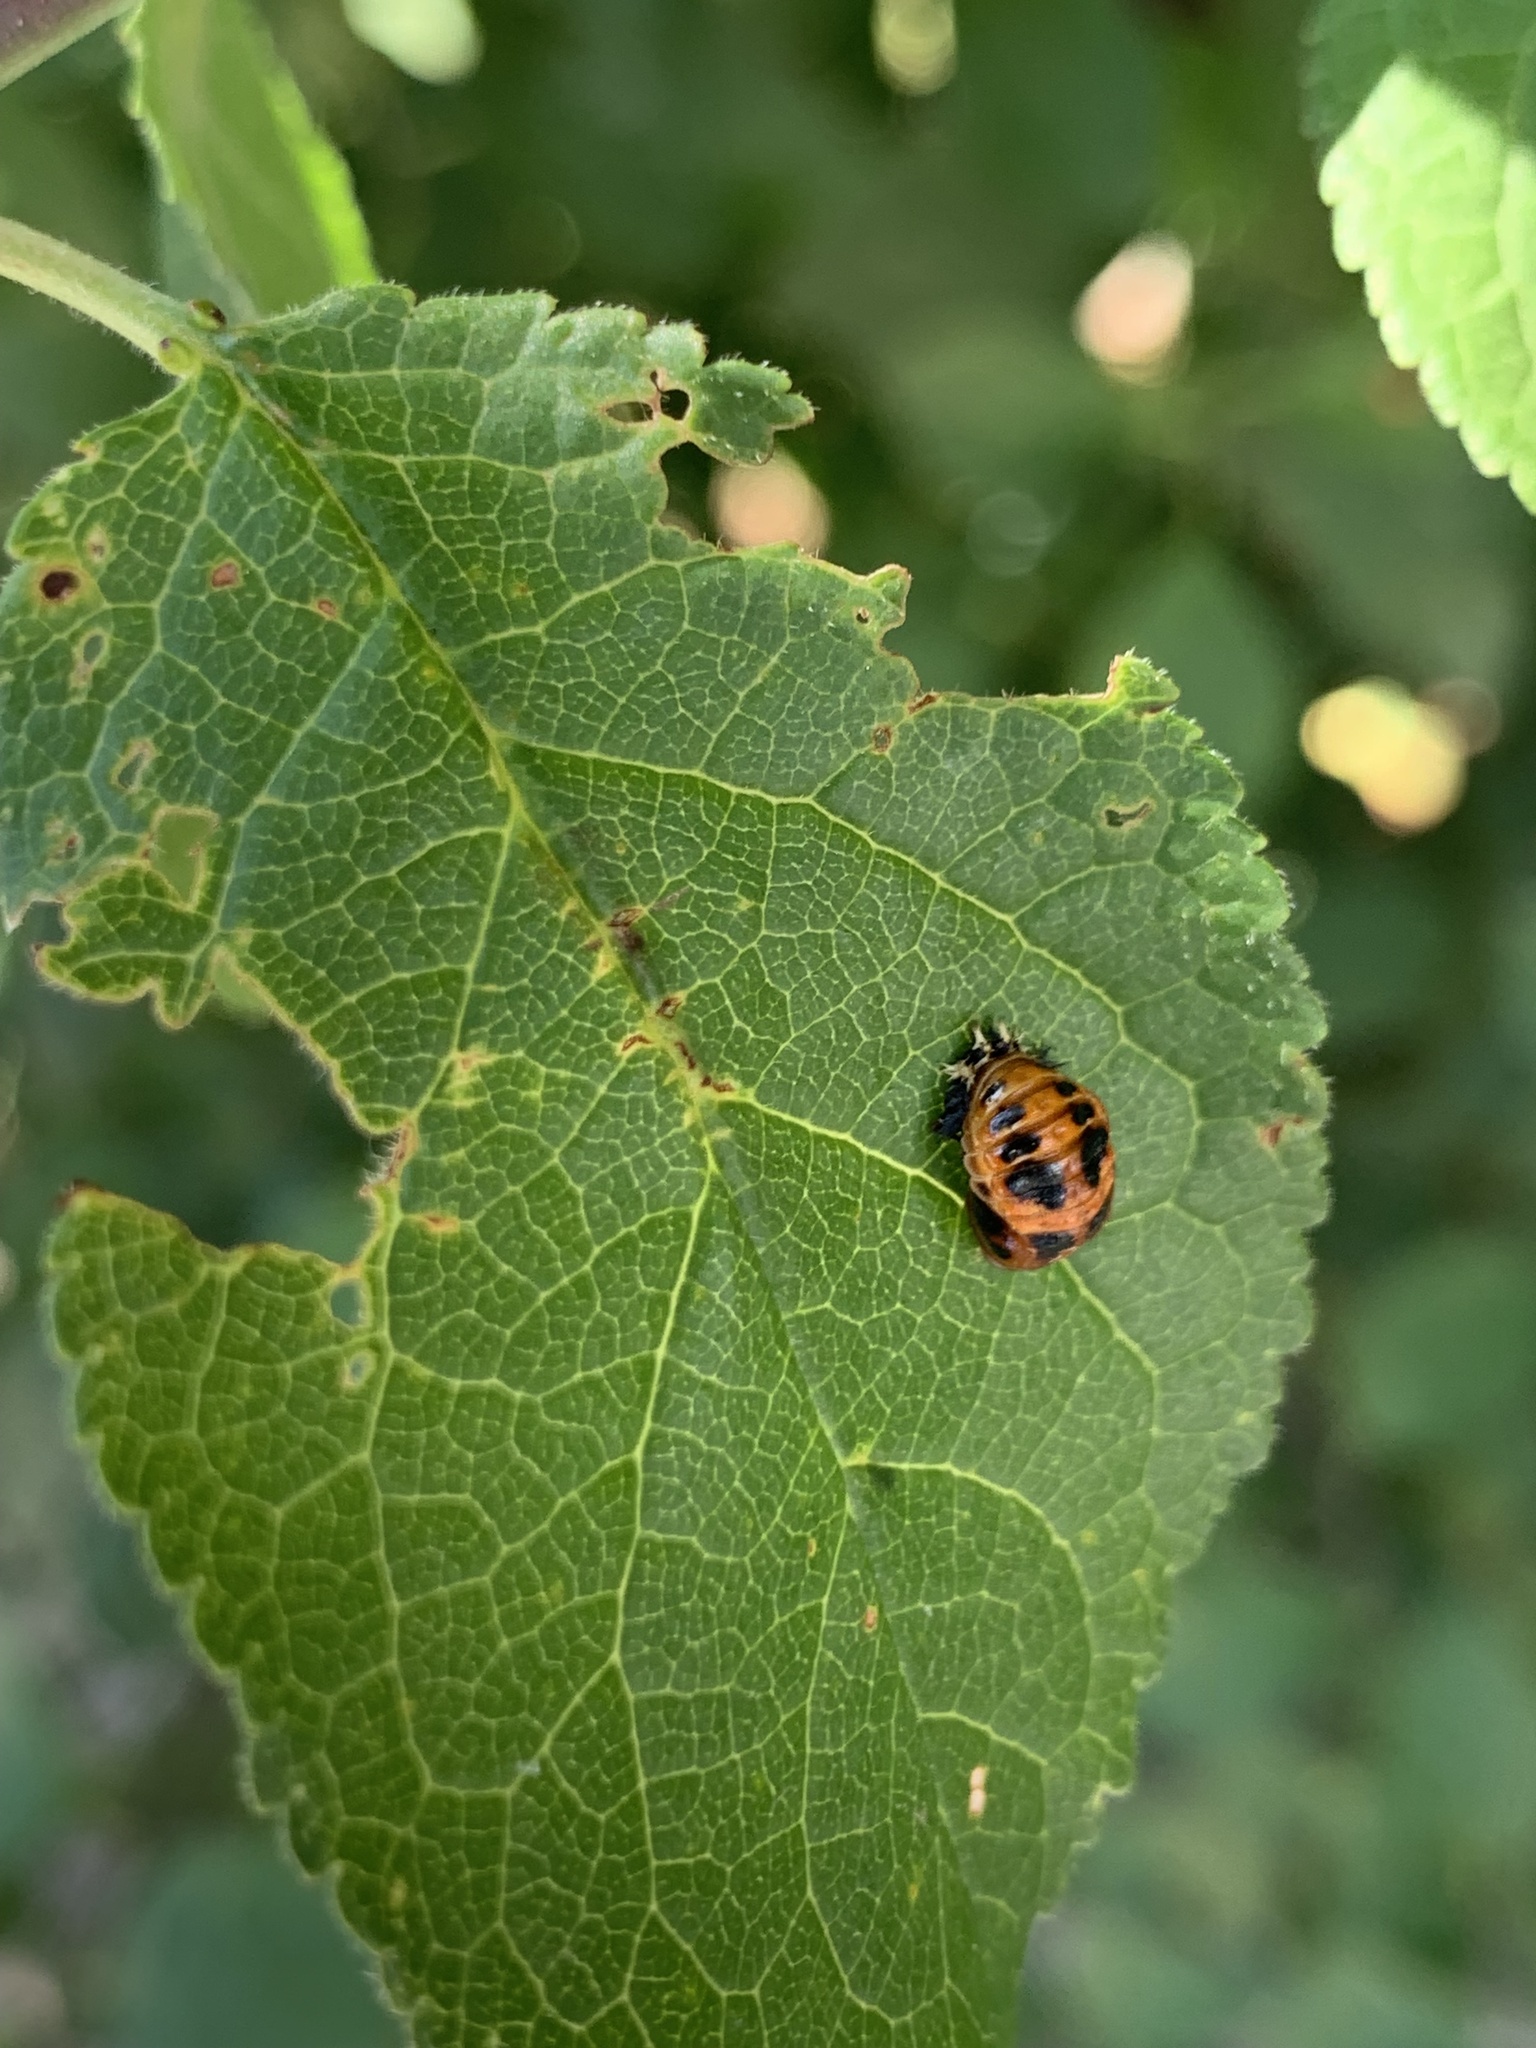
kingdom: Animalia
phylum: Arthropoda
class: Insecta
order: Coleoptera
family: Coccinellidae
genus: Harmonia
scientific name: Harmonia axyridis
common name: Harlequin ladybird
